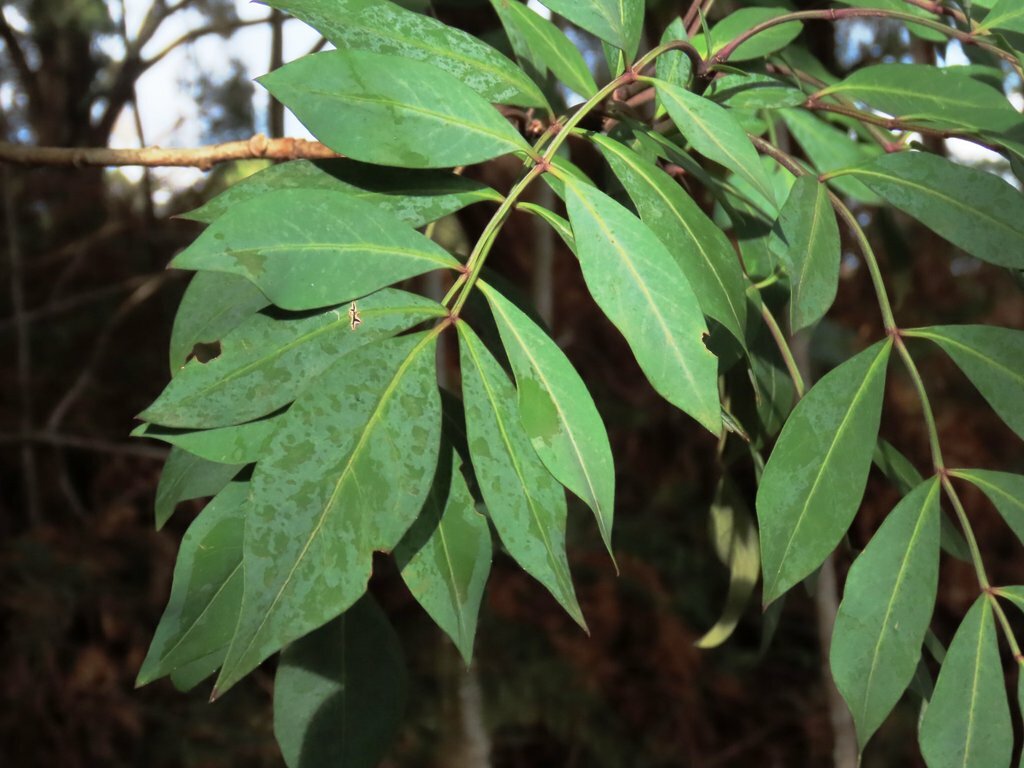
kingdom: Plantae
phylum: Tracheophyta
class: Magnoliopsida
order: Apiales
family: Araliaceae
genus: Polyscias
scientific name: Polyscias sambucifolia
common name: Elderberry-ash
